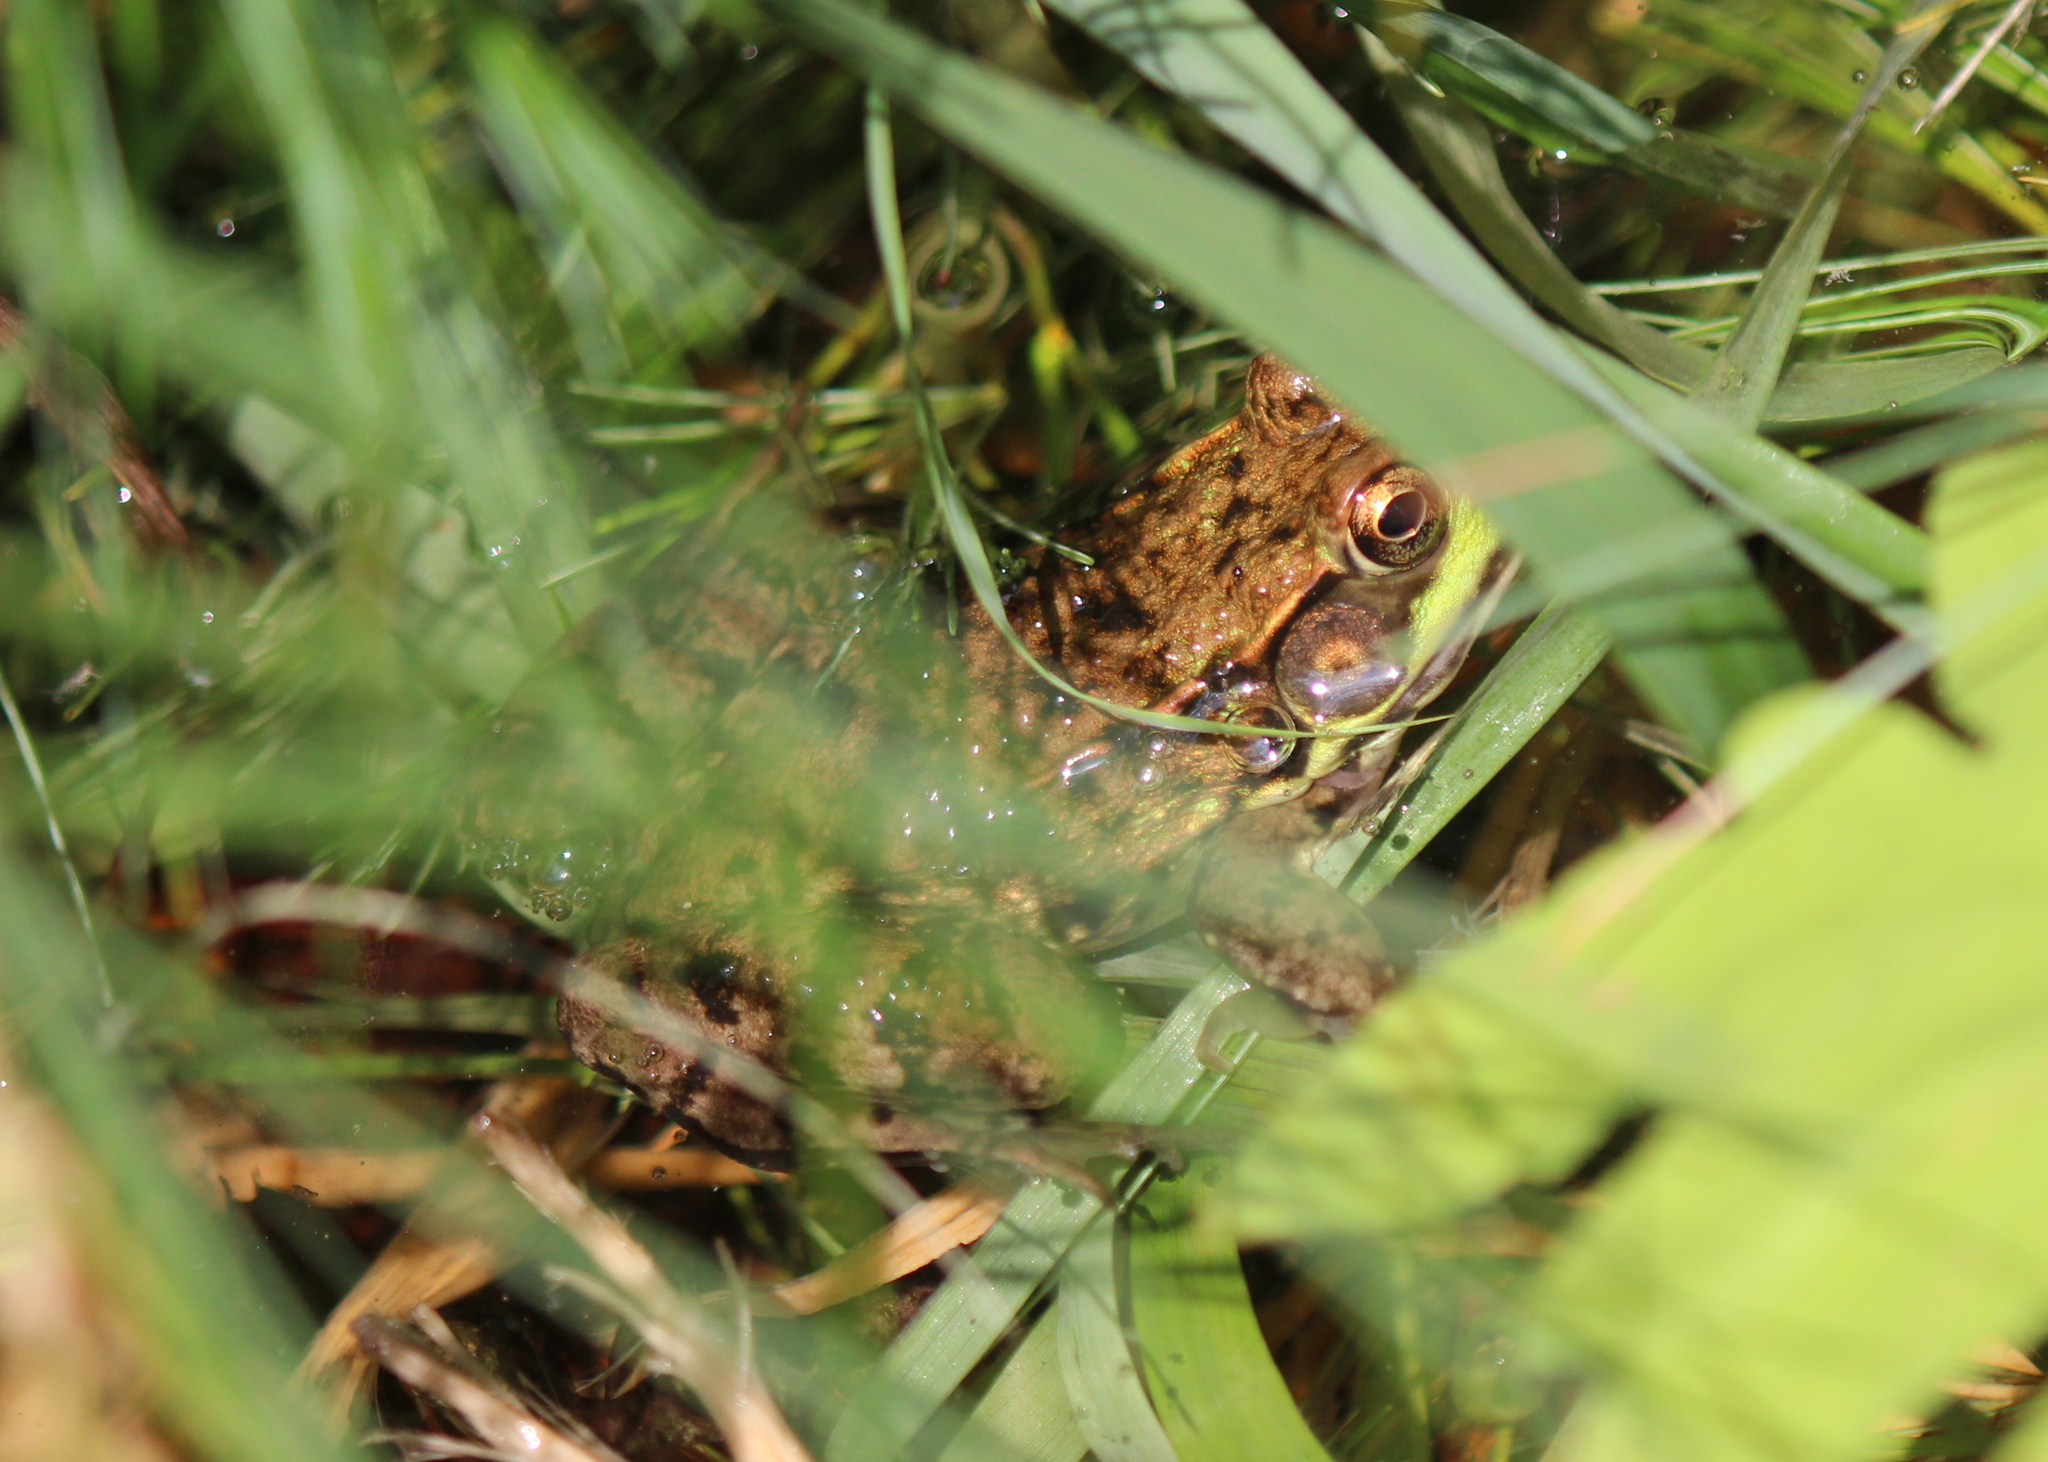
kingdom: Animalia
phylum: Chordata
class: Amphibia
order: Anura
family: Ranidae
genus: Lithobates
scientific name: Lithobates clamitans
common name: Green frog
